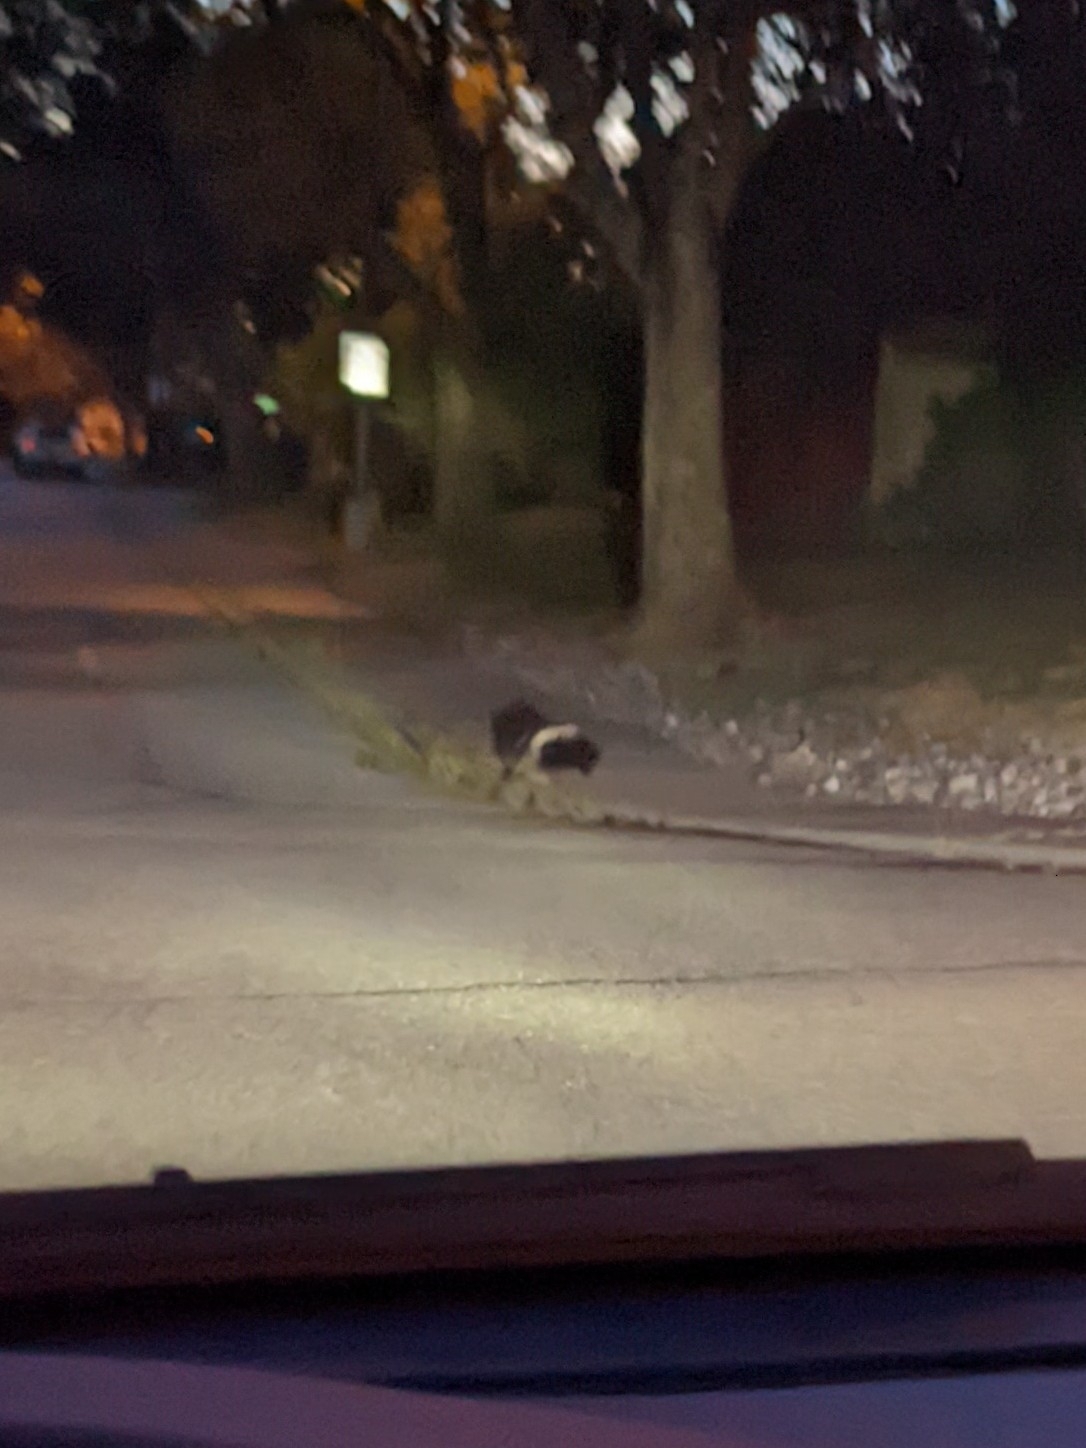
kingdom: Animalia
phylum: Chordata
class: Mammalia
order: Carnivora
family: Mephitidae
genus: Mephitis
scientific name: Mephitis mephitis
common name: Striped skunk
